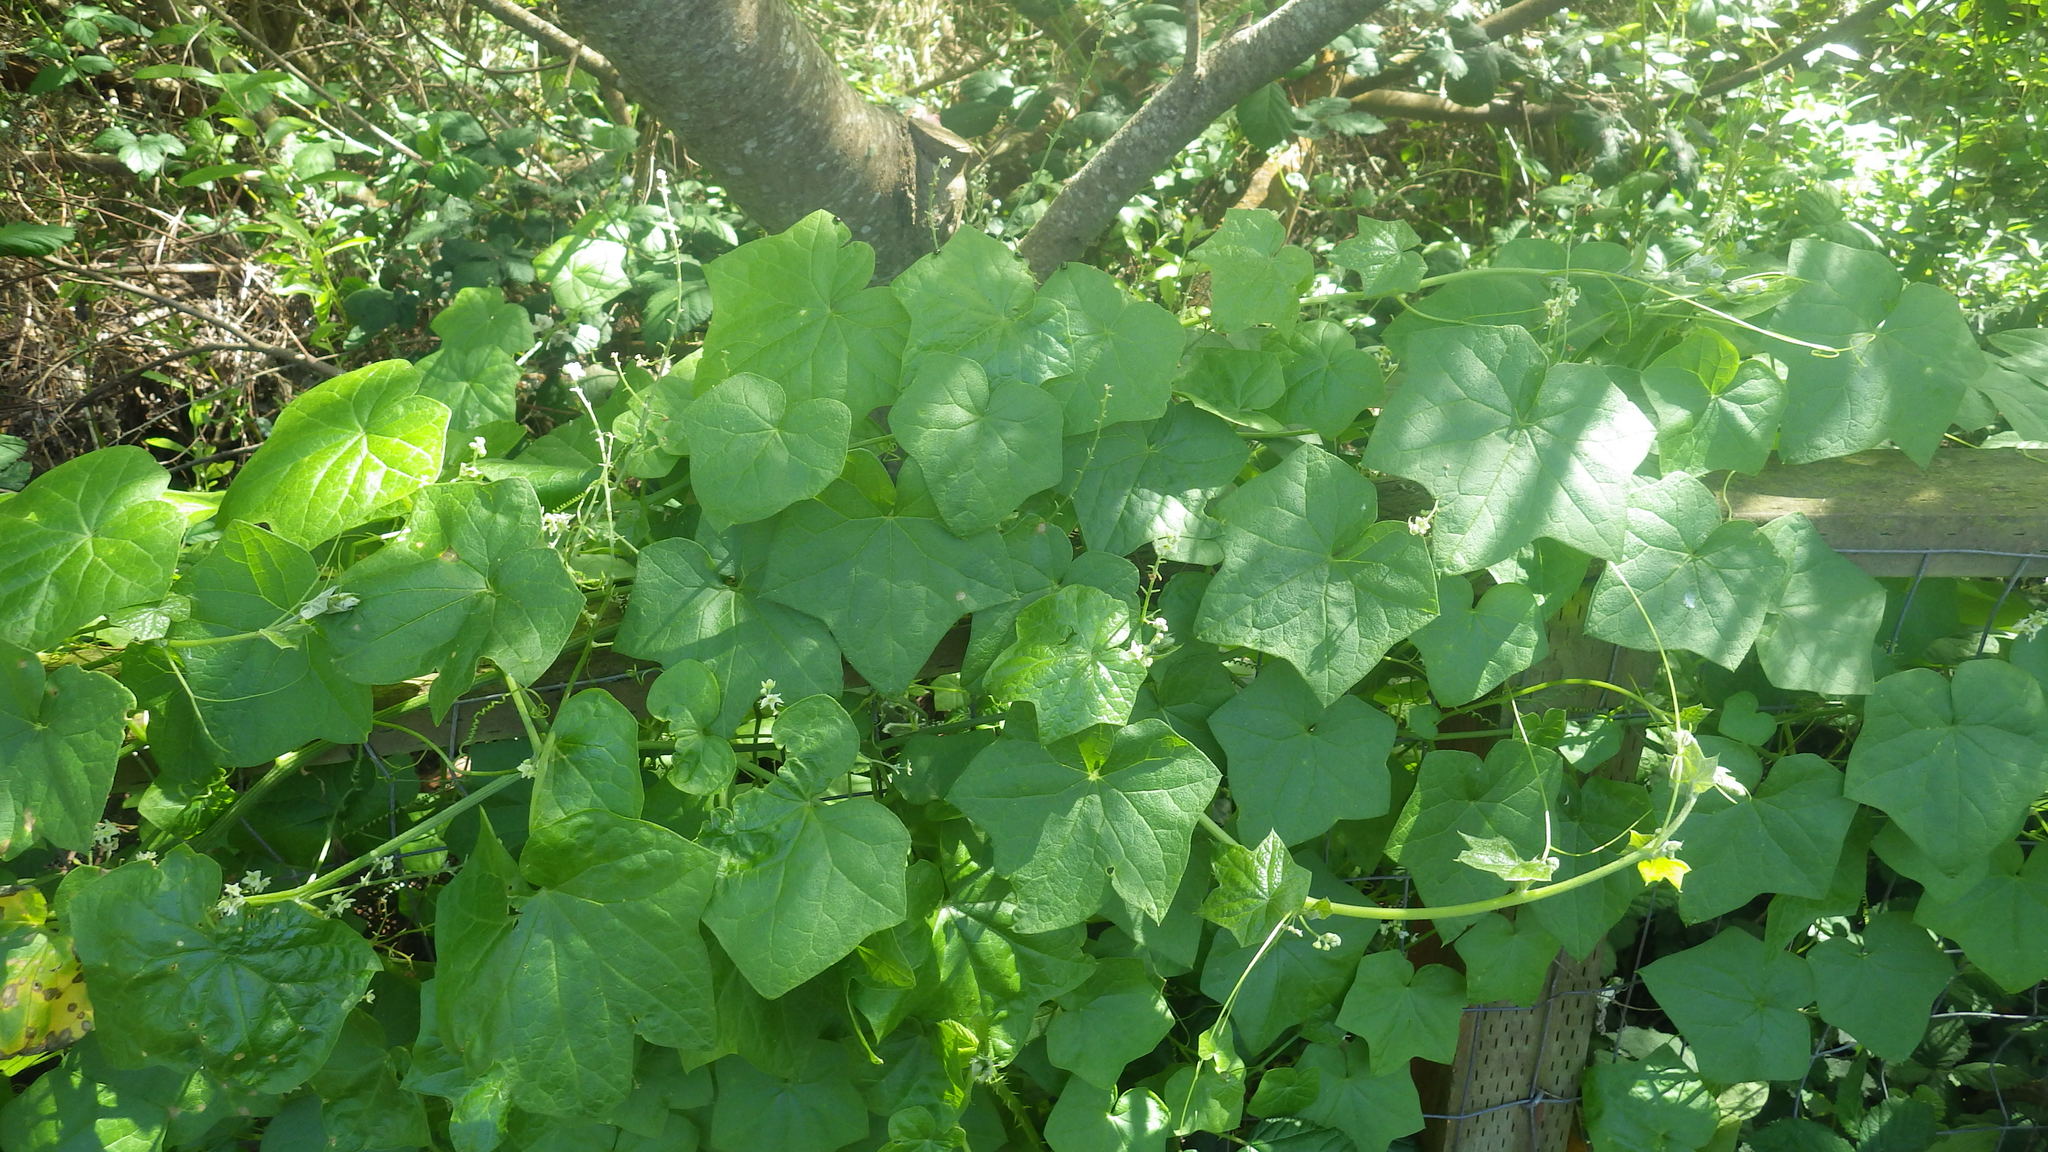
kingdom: Plantae
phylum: Tracheophyta
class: Magnoliopsida
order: Cucurbitales
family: Cucurbitaceae
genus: Marah
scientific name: Marah fabacea
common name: California manroot
